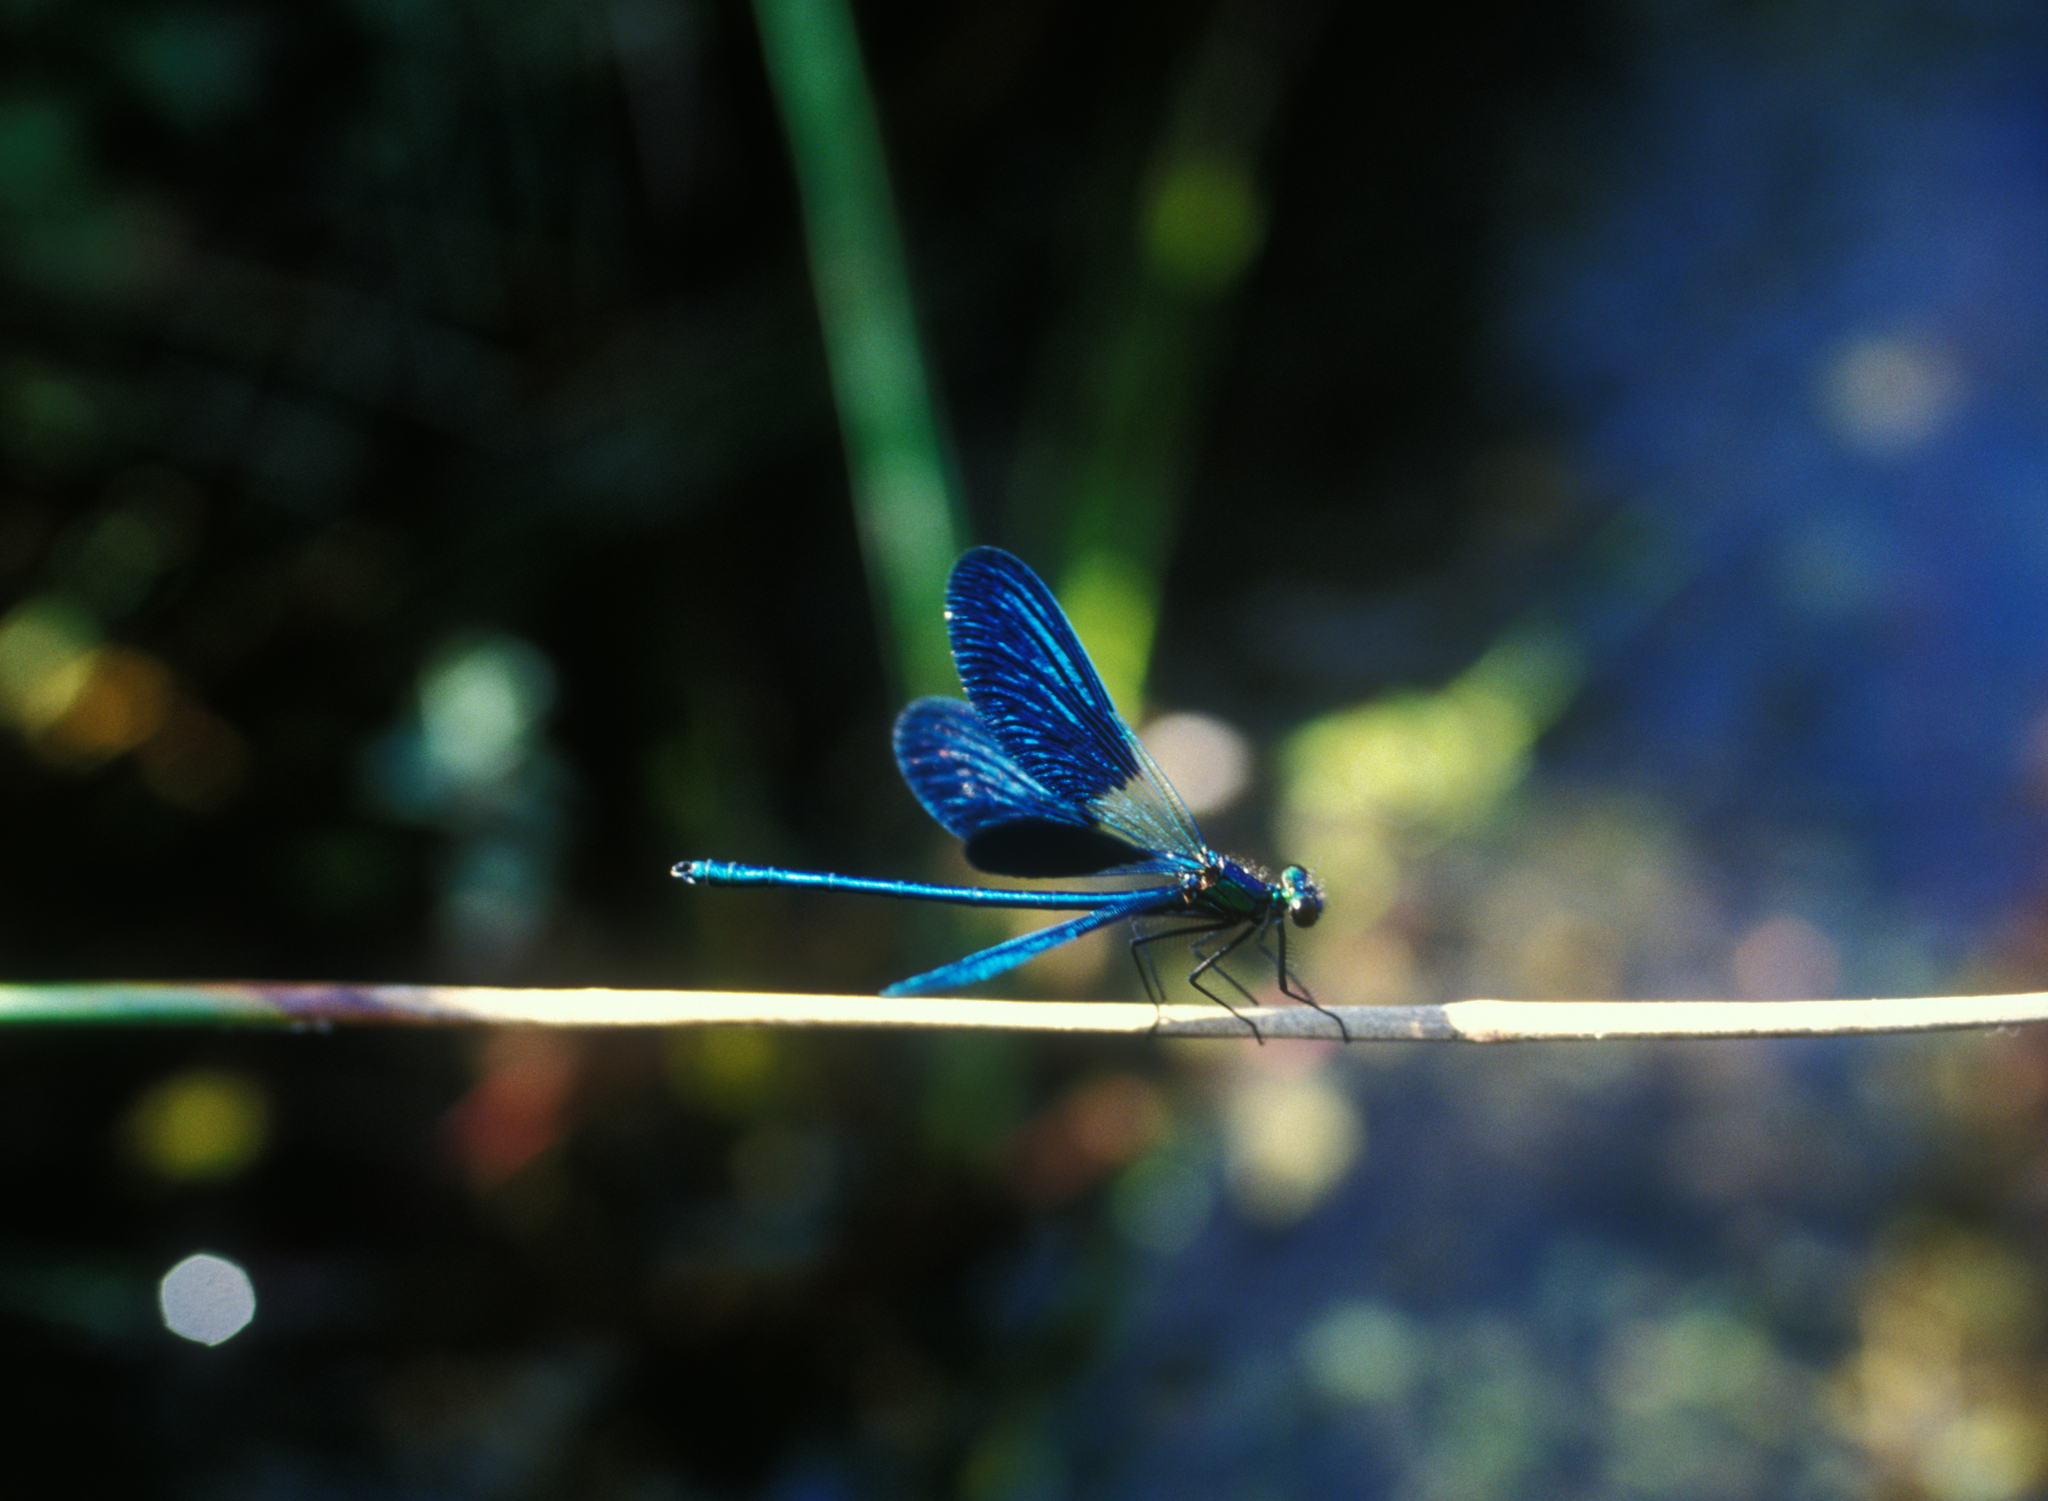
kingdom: Animalia
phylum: Arthropoda
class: Insecta
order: Odonata
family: Calopterygidae
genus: Calopteryx
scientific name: Calopteryx splendens
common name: Banded demoiselle
